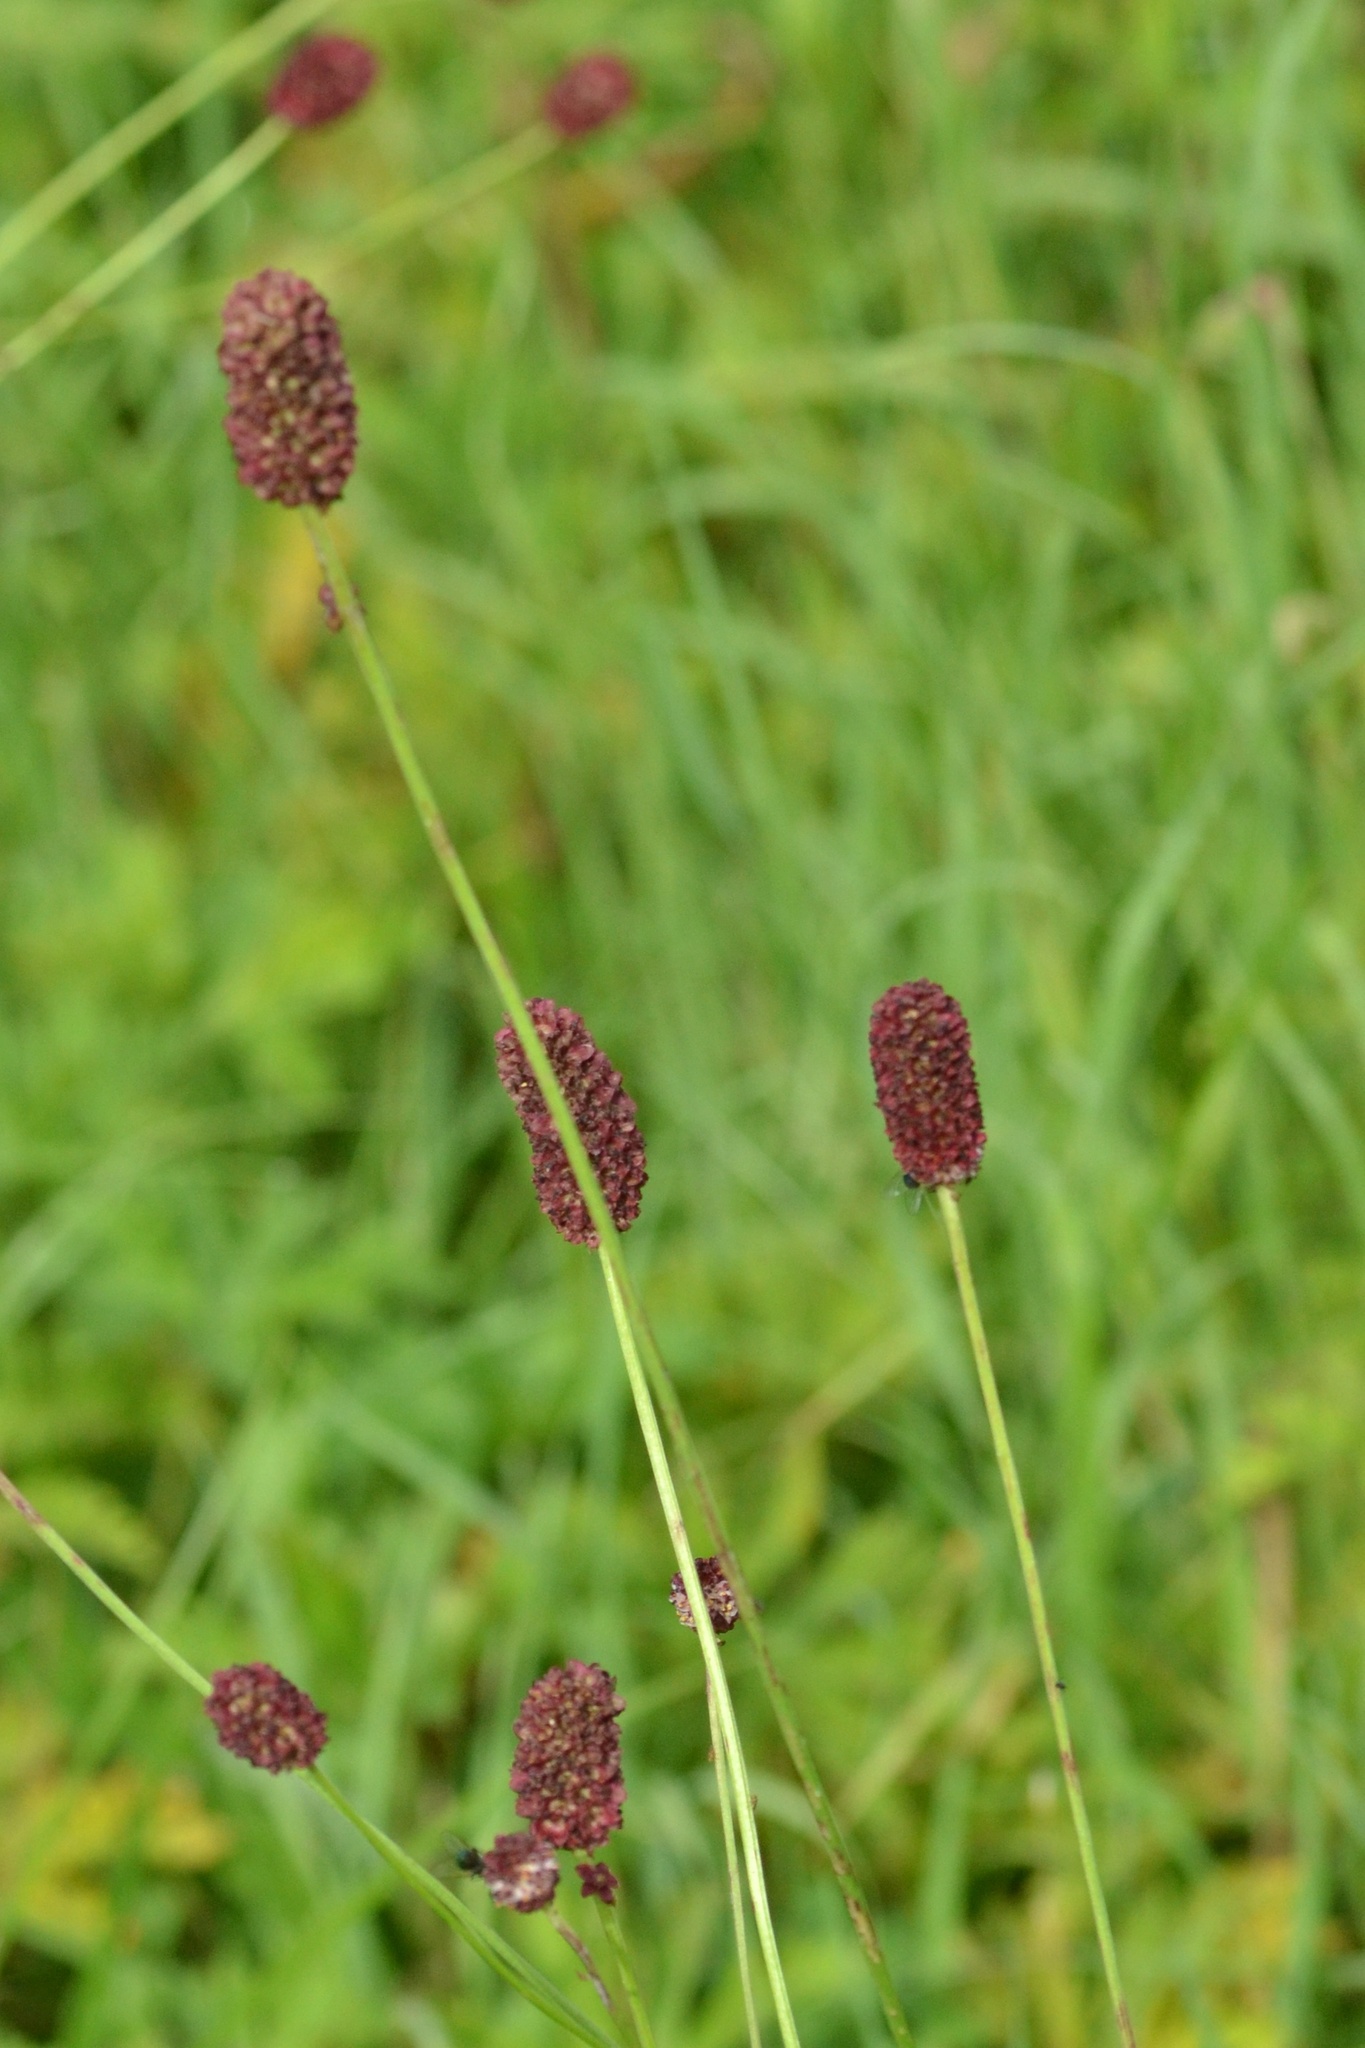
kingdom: Plantae
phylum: Tracheophyta
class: Magnoliopsida
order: Rosales
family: Rosaceae
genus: Sanguisorba
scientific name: Sanguisorba officinalis
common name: Great burnet
